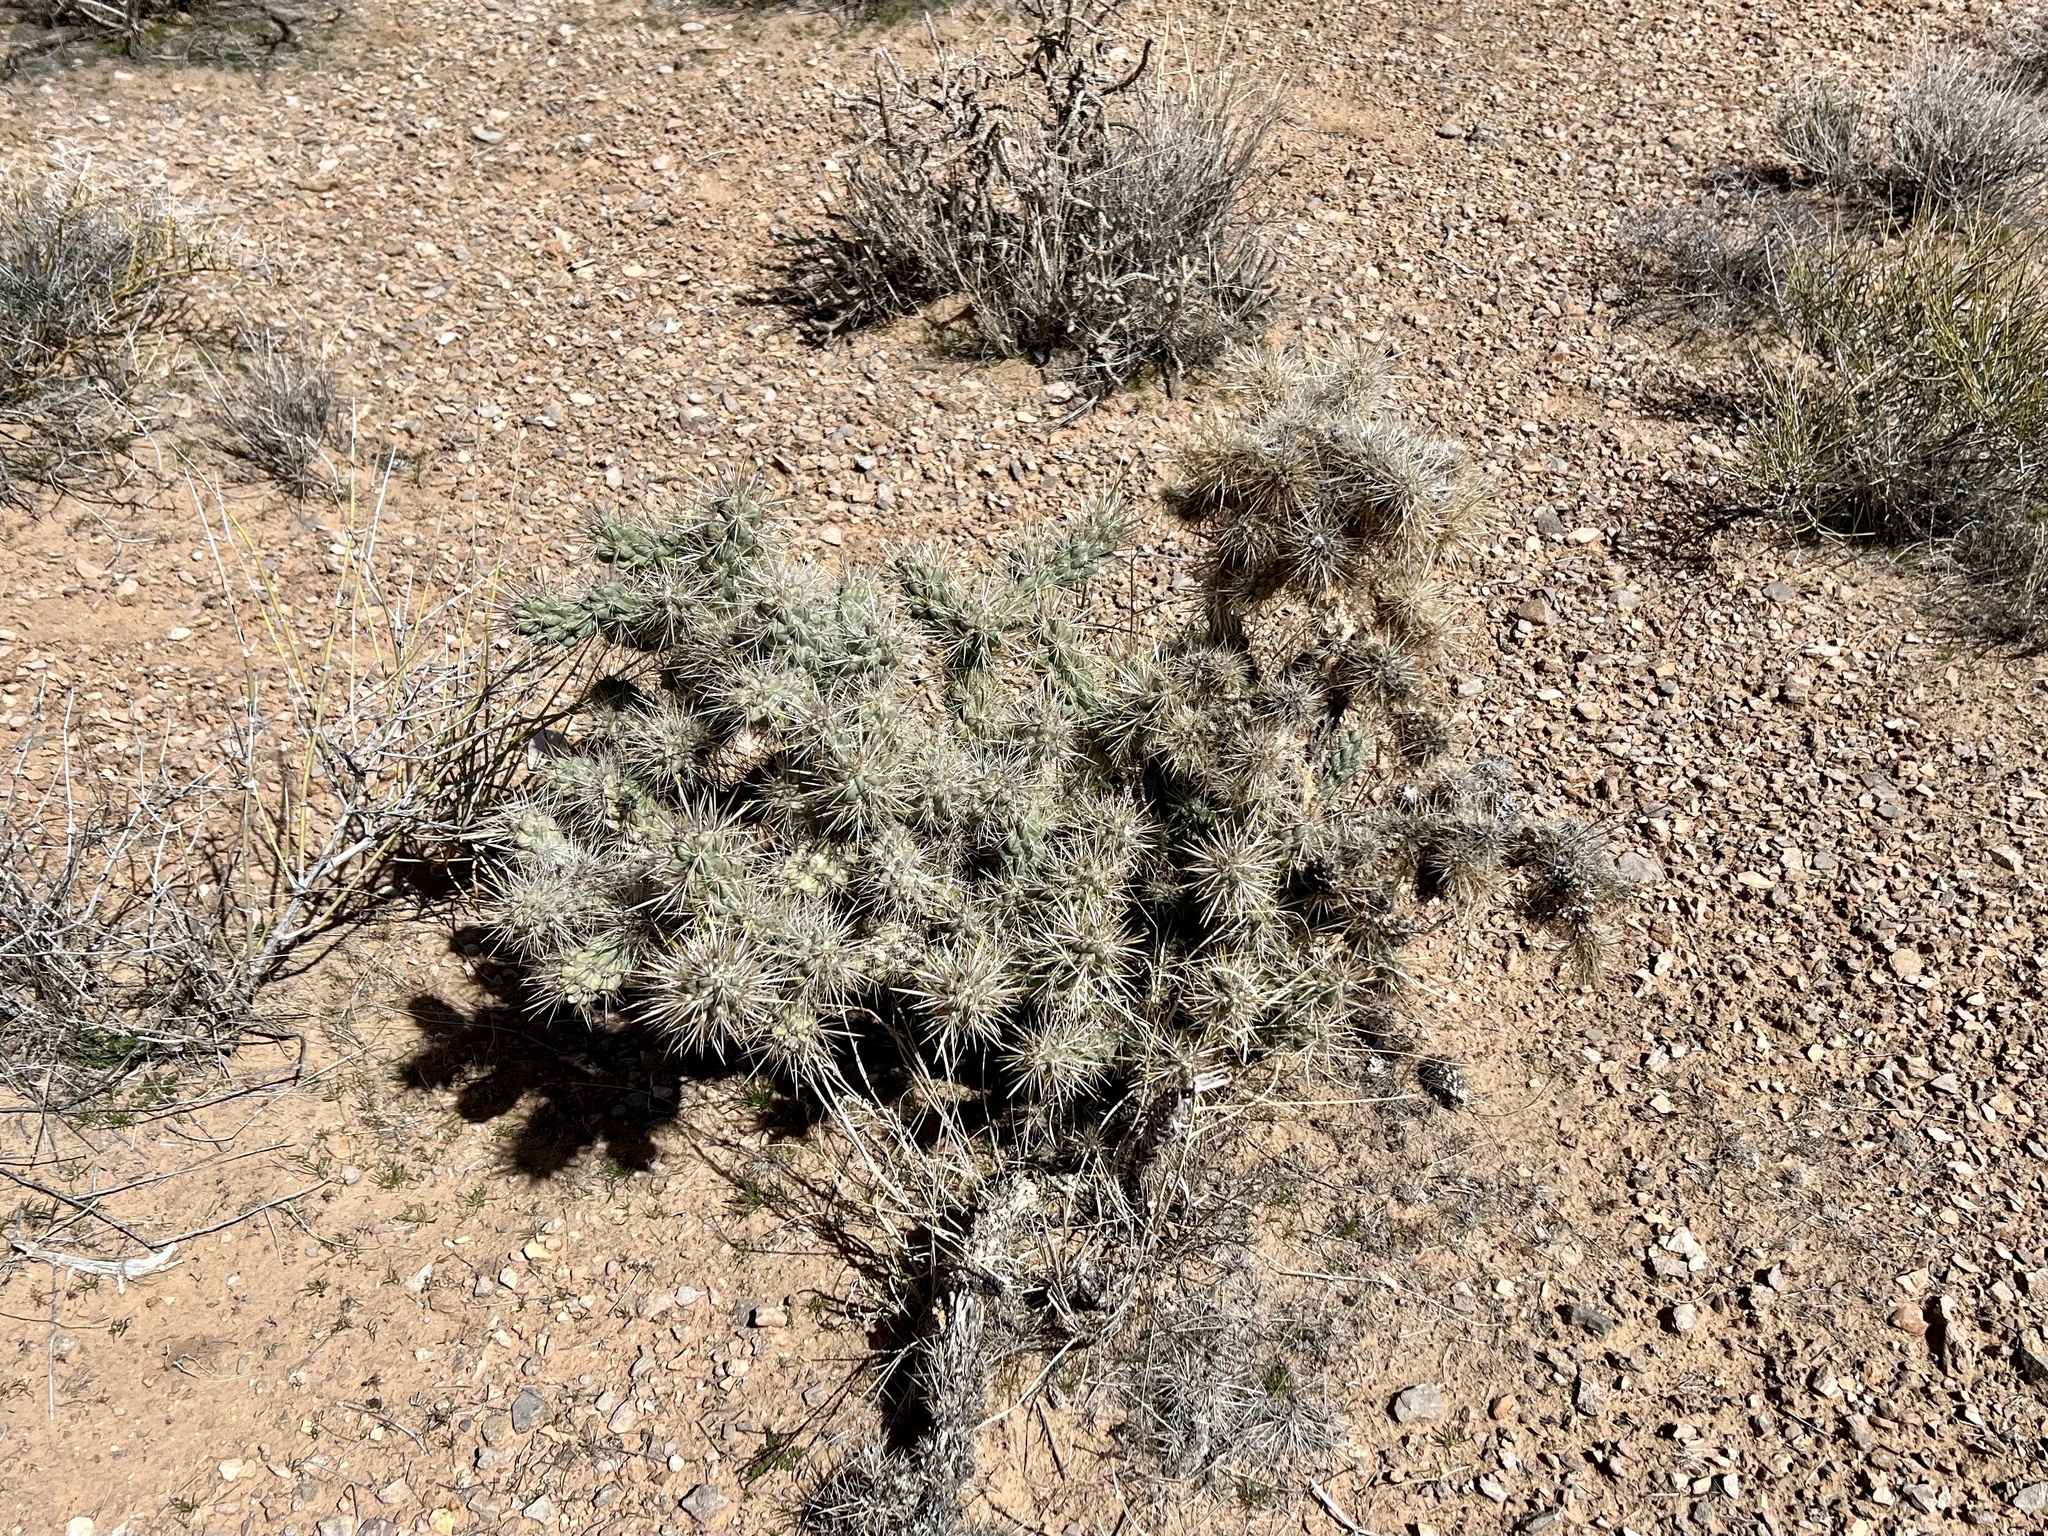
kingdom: Plantae
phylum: Tracheophyta
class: Magnoliopsida
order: Caryophyllales
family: Cactaceae
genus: Cylindropuntia
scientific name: Cylindropuntia echinocarpa
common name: Ground cholla
